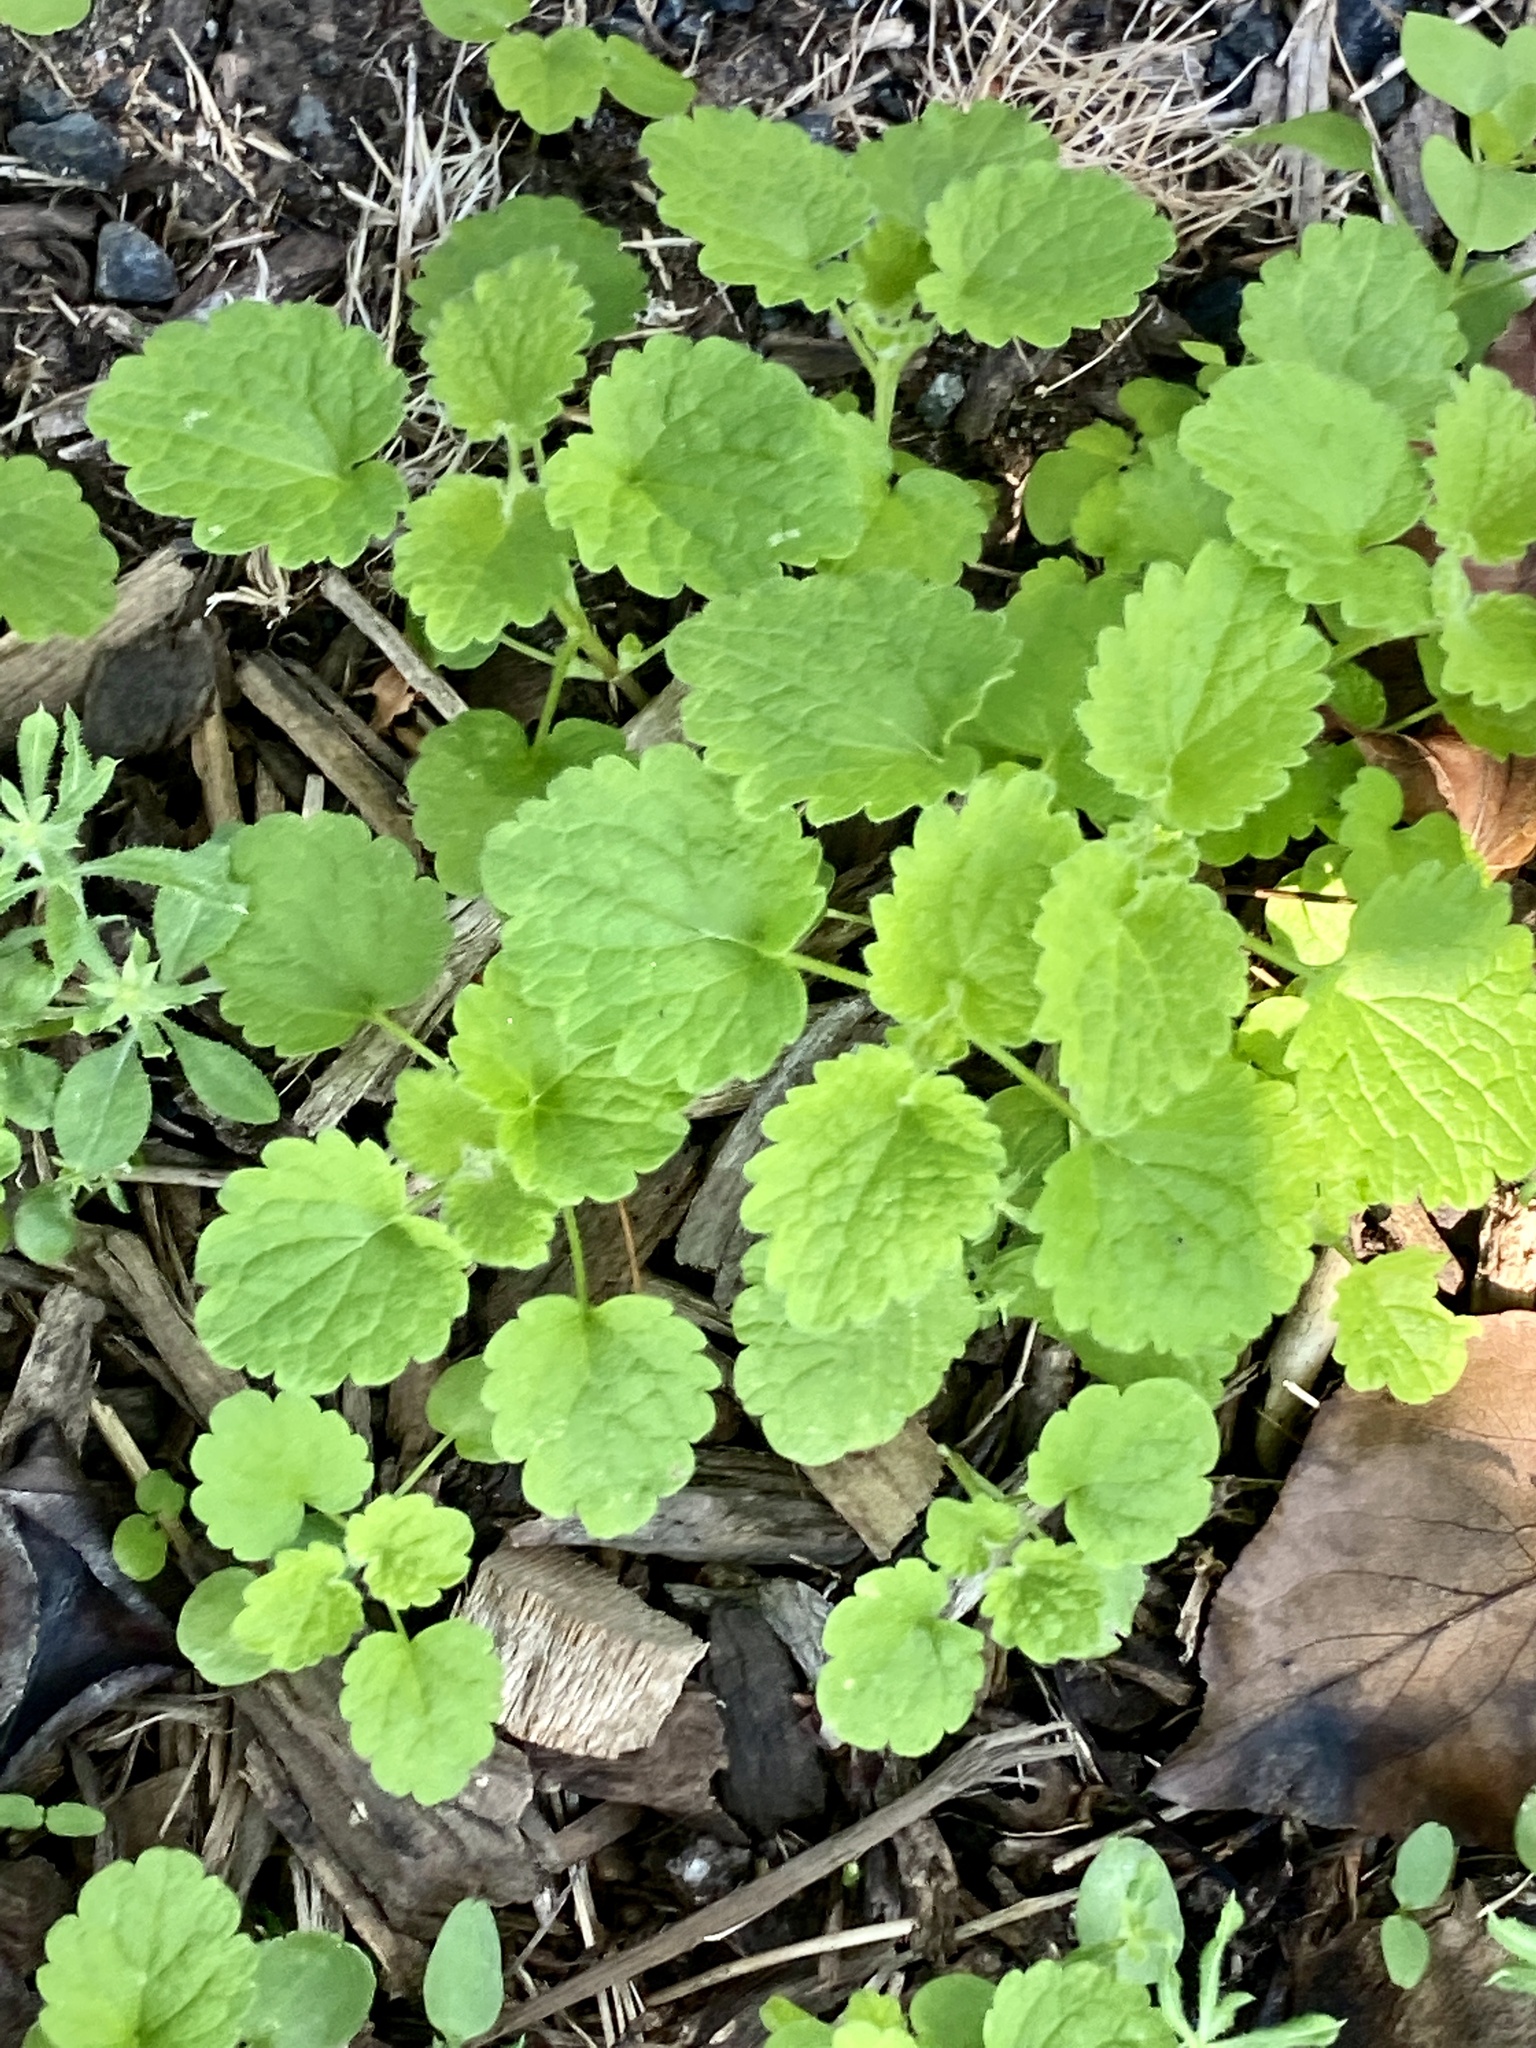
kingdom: Plantae
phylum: Tracheophyta
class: Magnoliopsida
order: Lamiales
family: Lamiaceae
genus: Lamium
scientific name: Lamium purpureum
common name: Red dead-nettle
